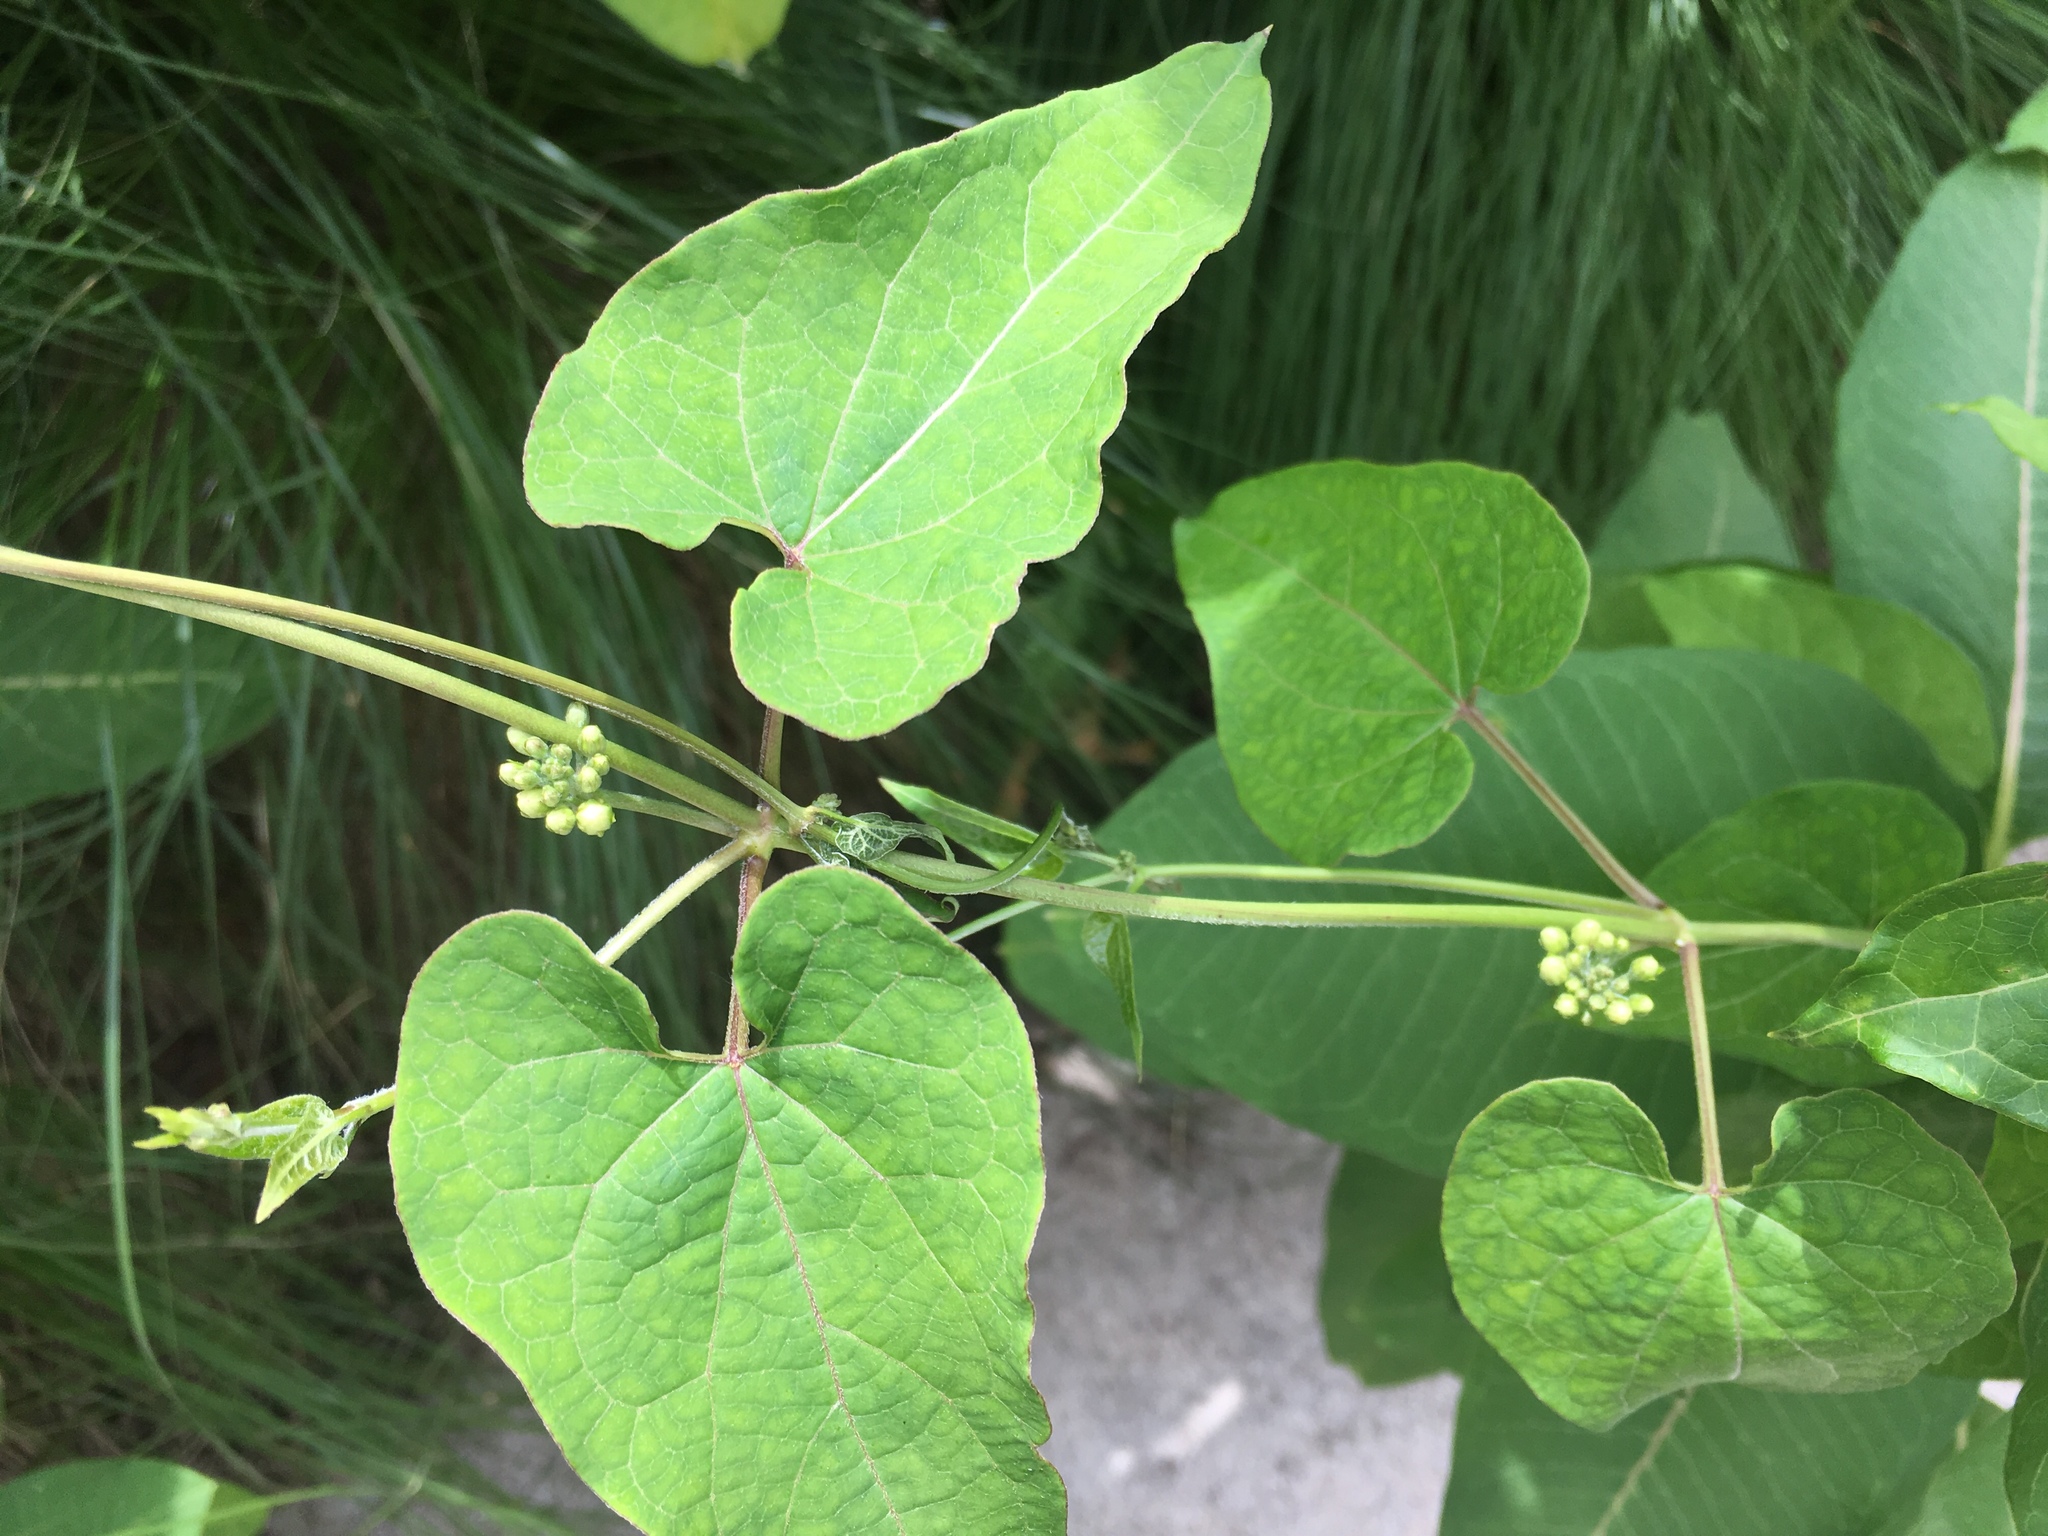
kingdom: Plantae
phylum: Tracheophyta
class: Magnoliopsida
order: Gentianales
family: Apocynaceae
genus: Cynanchum
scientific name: Cynanchum laeve
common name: Sandvine
